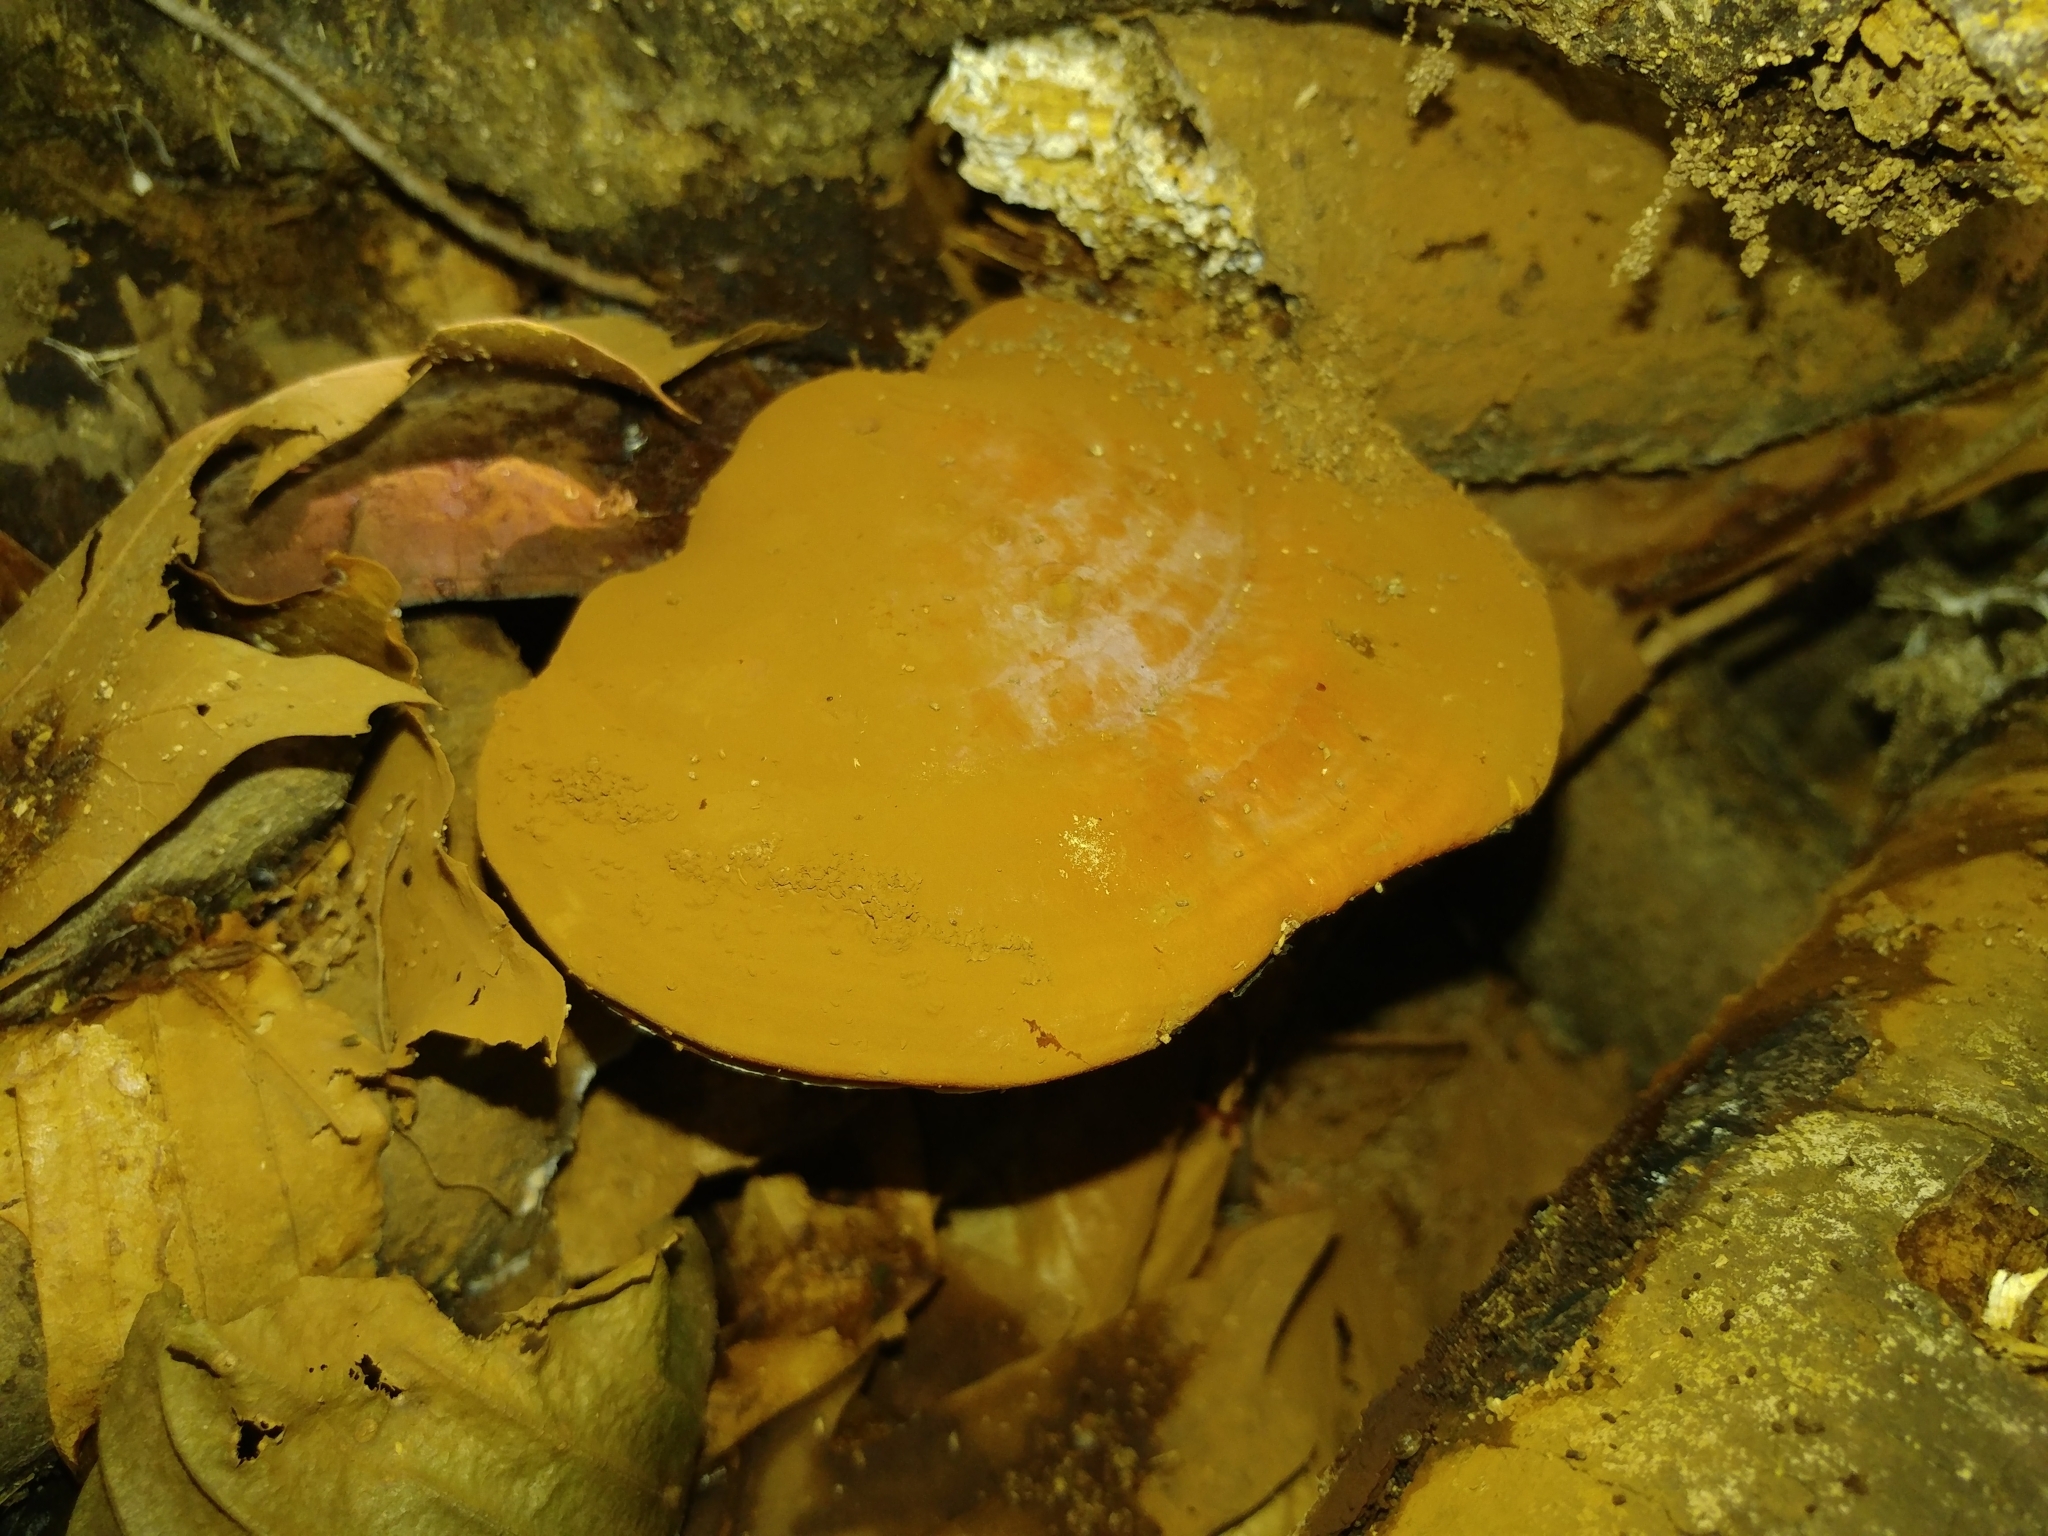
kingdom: Fungi
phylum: Basidiomycota
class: Agaricomycetes
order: Polyporales
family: Polyporaceae
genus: Ganoderma
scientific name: Ganoderma curtisii
